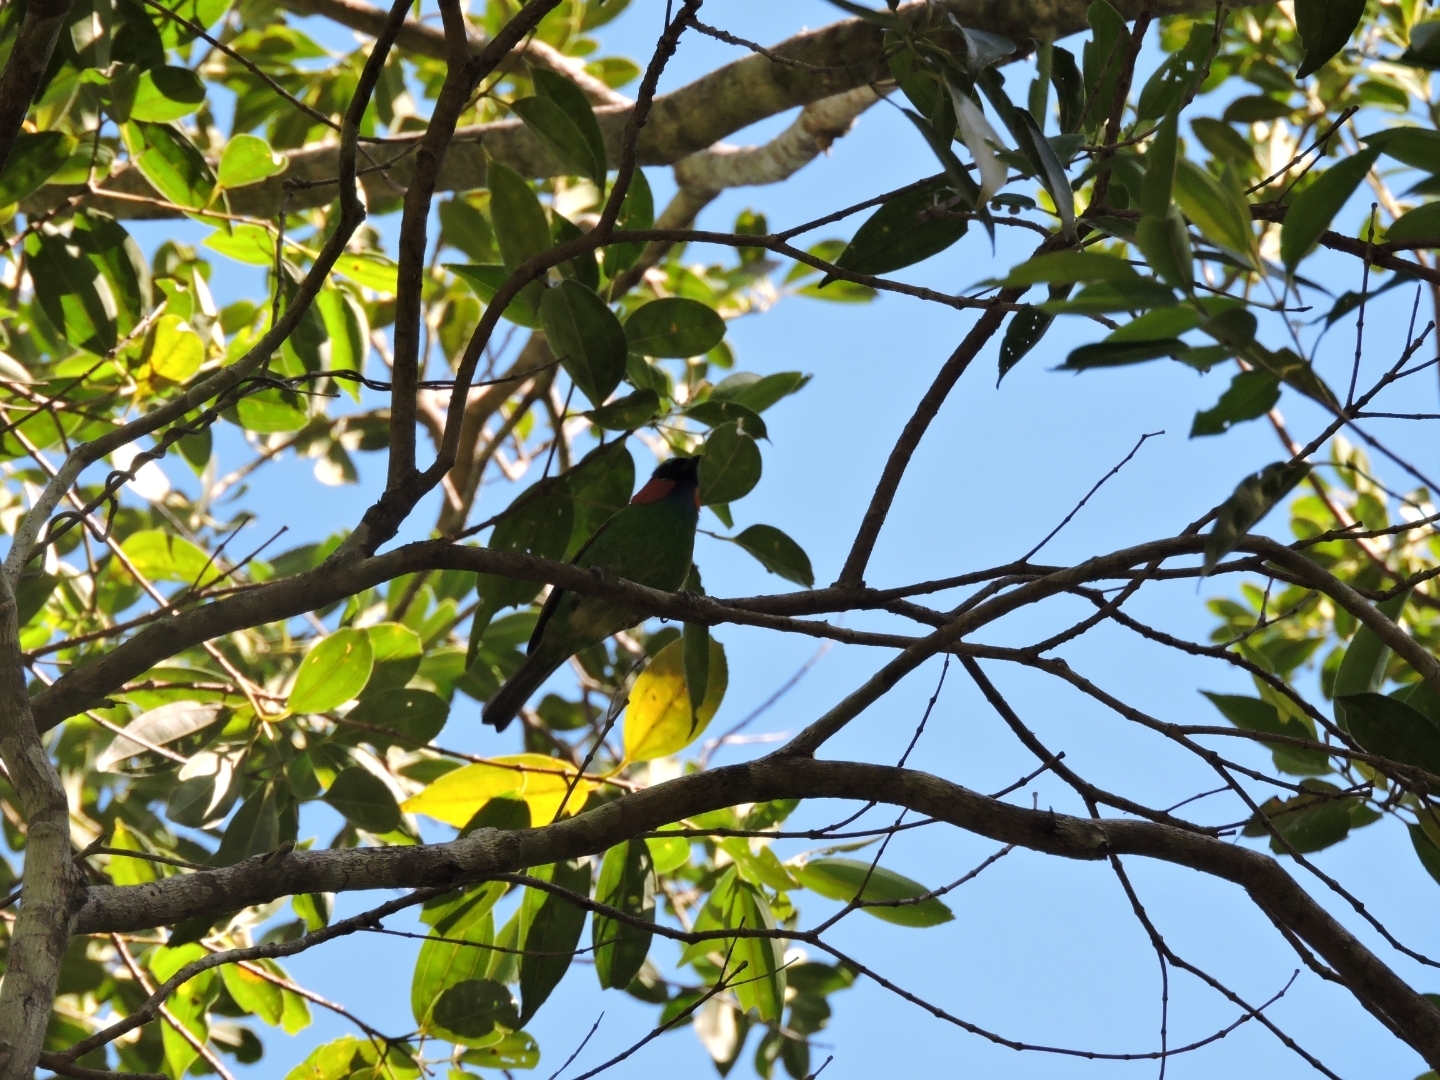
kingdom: Animalia
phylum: Chordata
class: Aves
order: Passeriformes
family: Thraupidae
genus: Tangara
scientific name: Tangara cyanocephala
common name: Red-necked tanager
